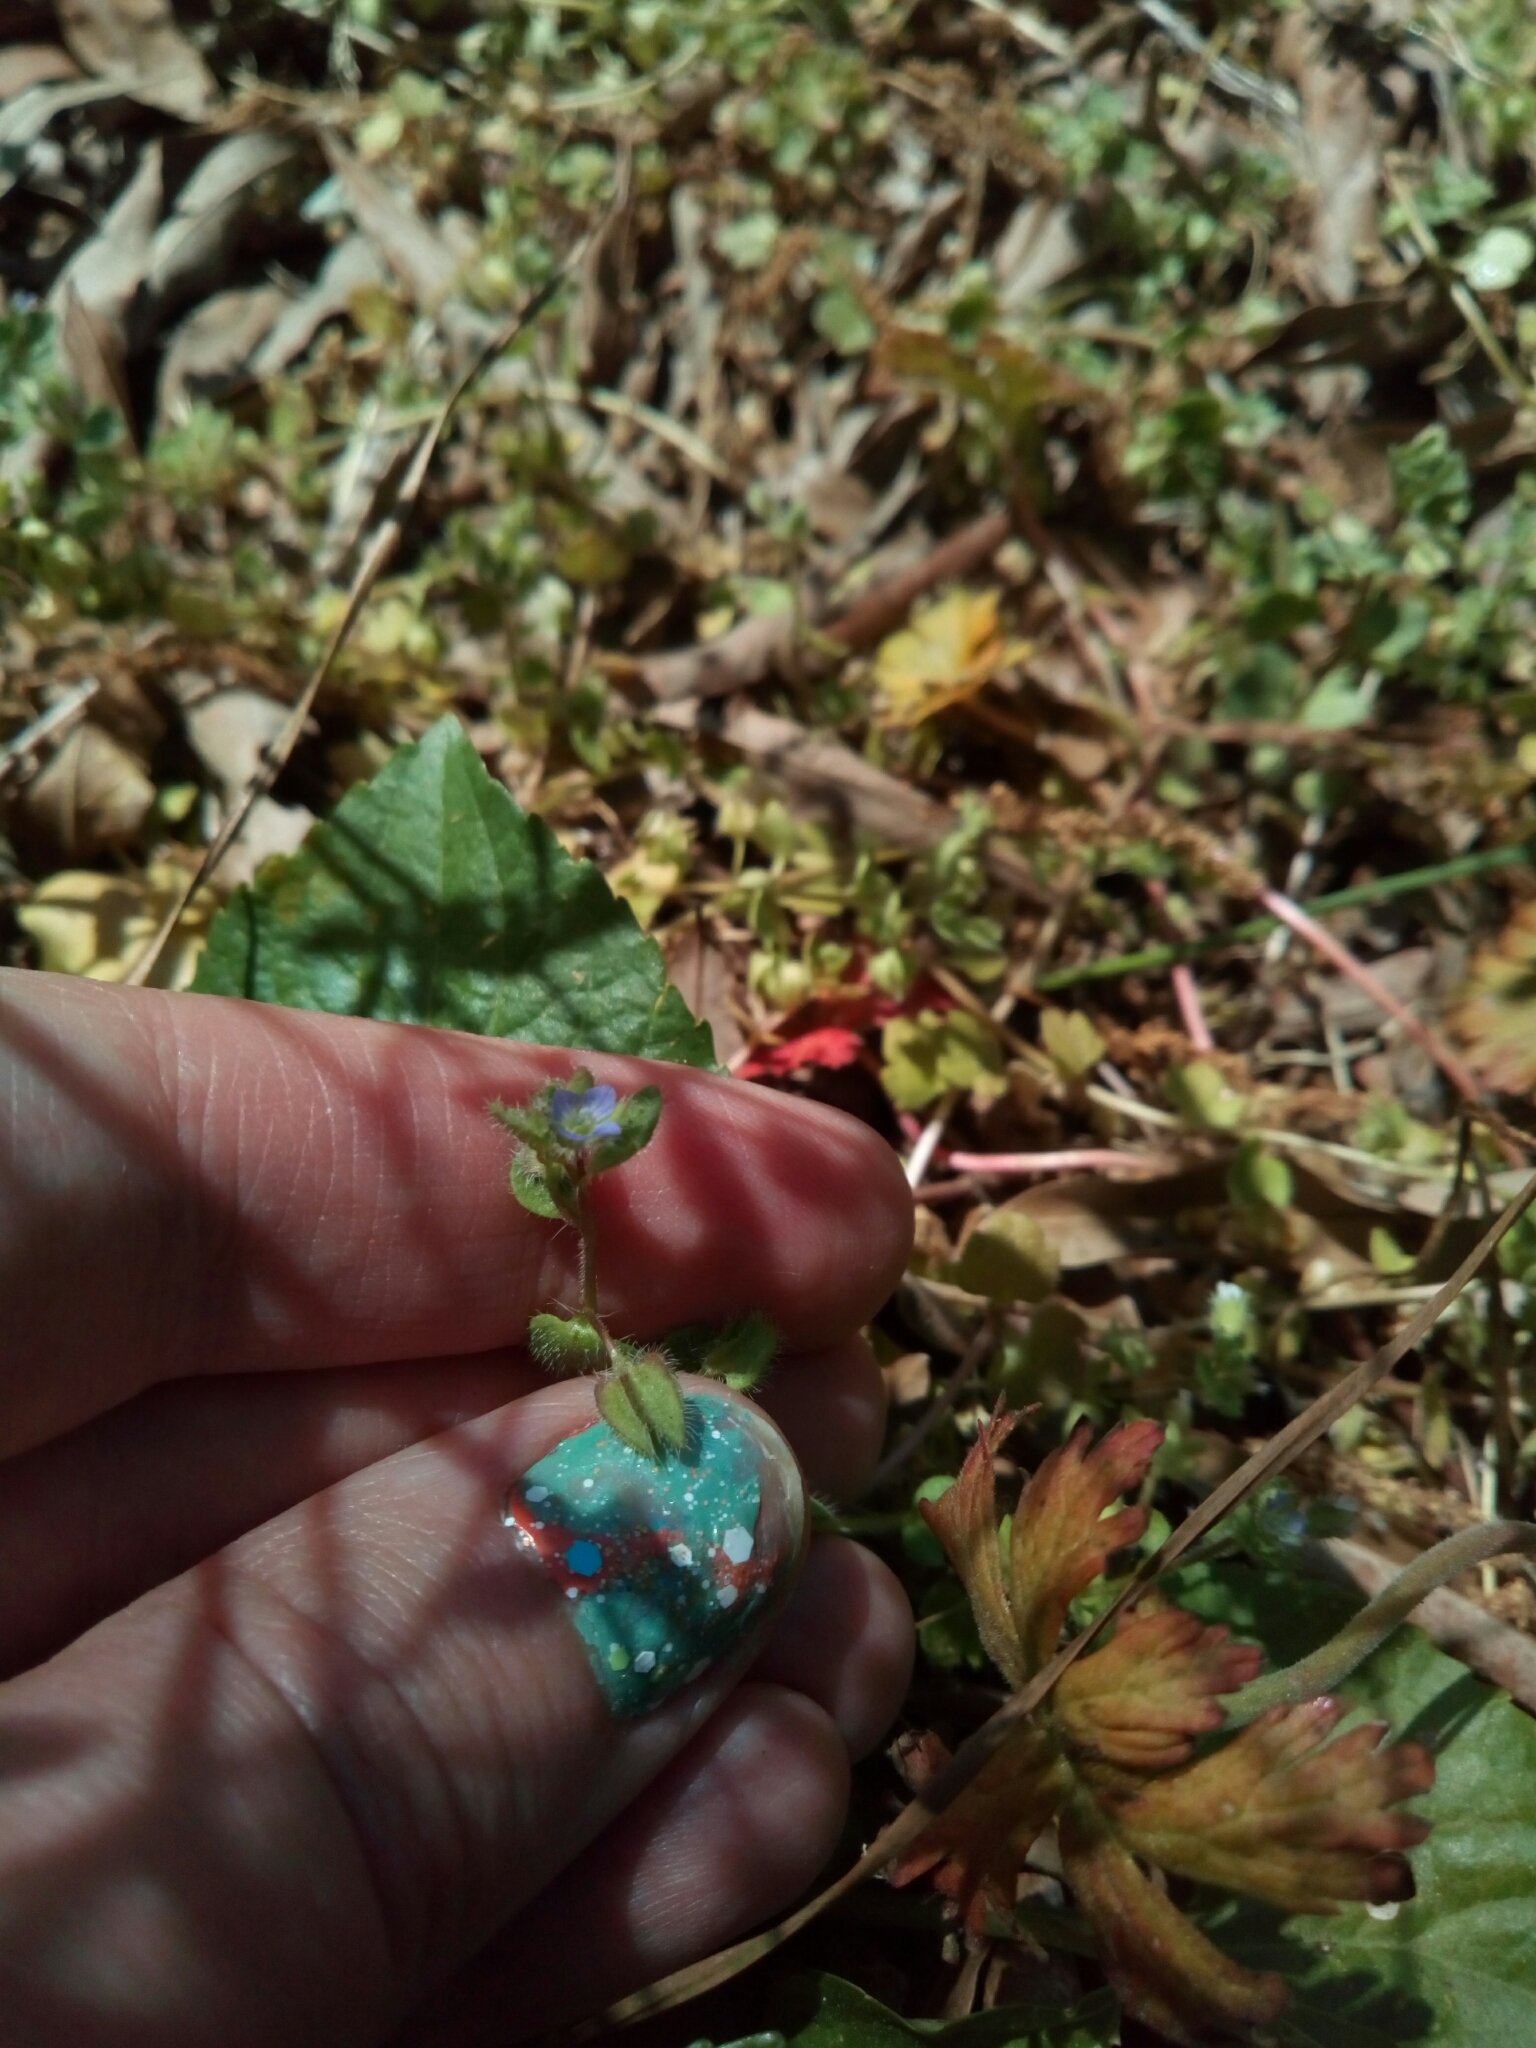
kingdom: Plantae
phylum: Tracheophyta
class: Magnoliopsida
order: Lamiales
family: Plantaginaceae
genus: Veronica
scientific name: Veronica hederifolia
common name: Ivy-leaved speedwell
